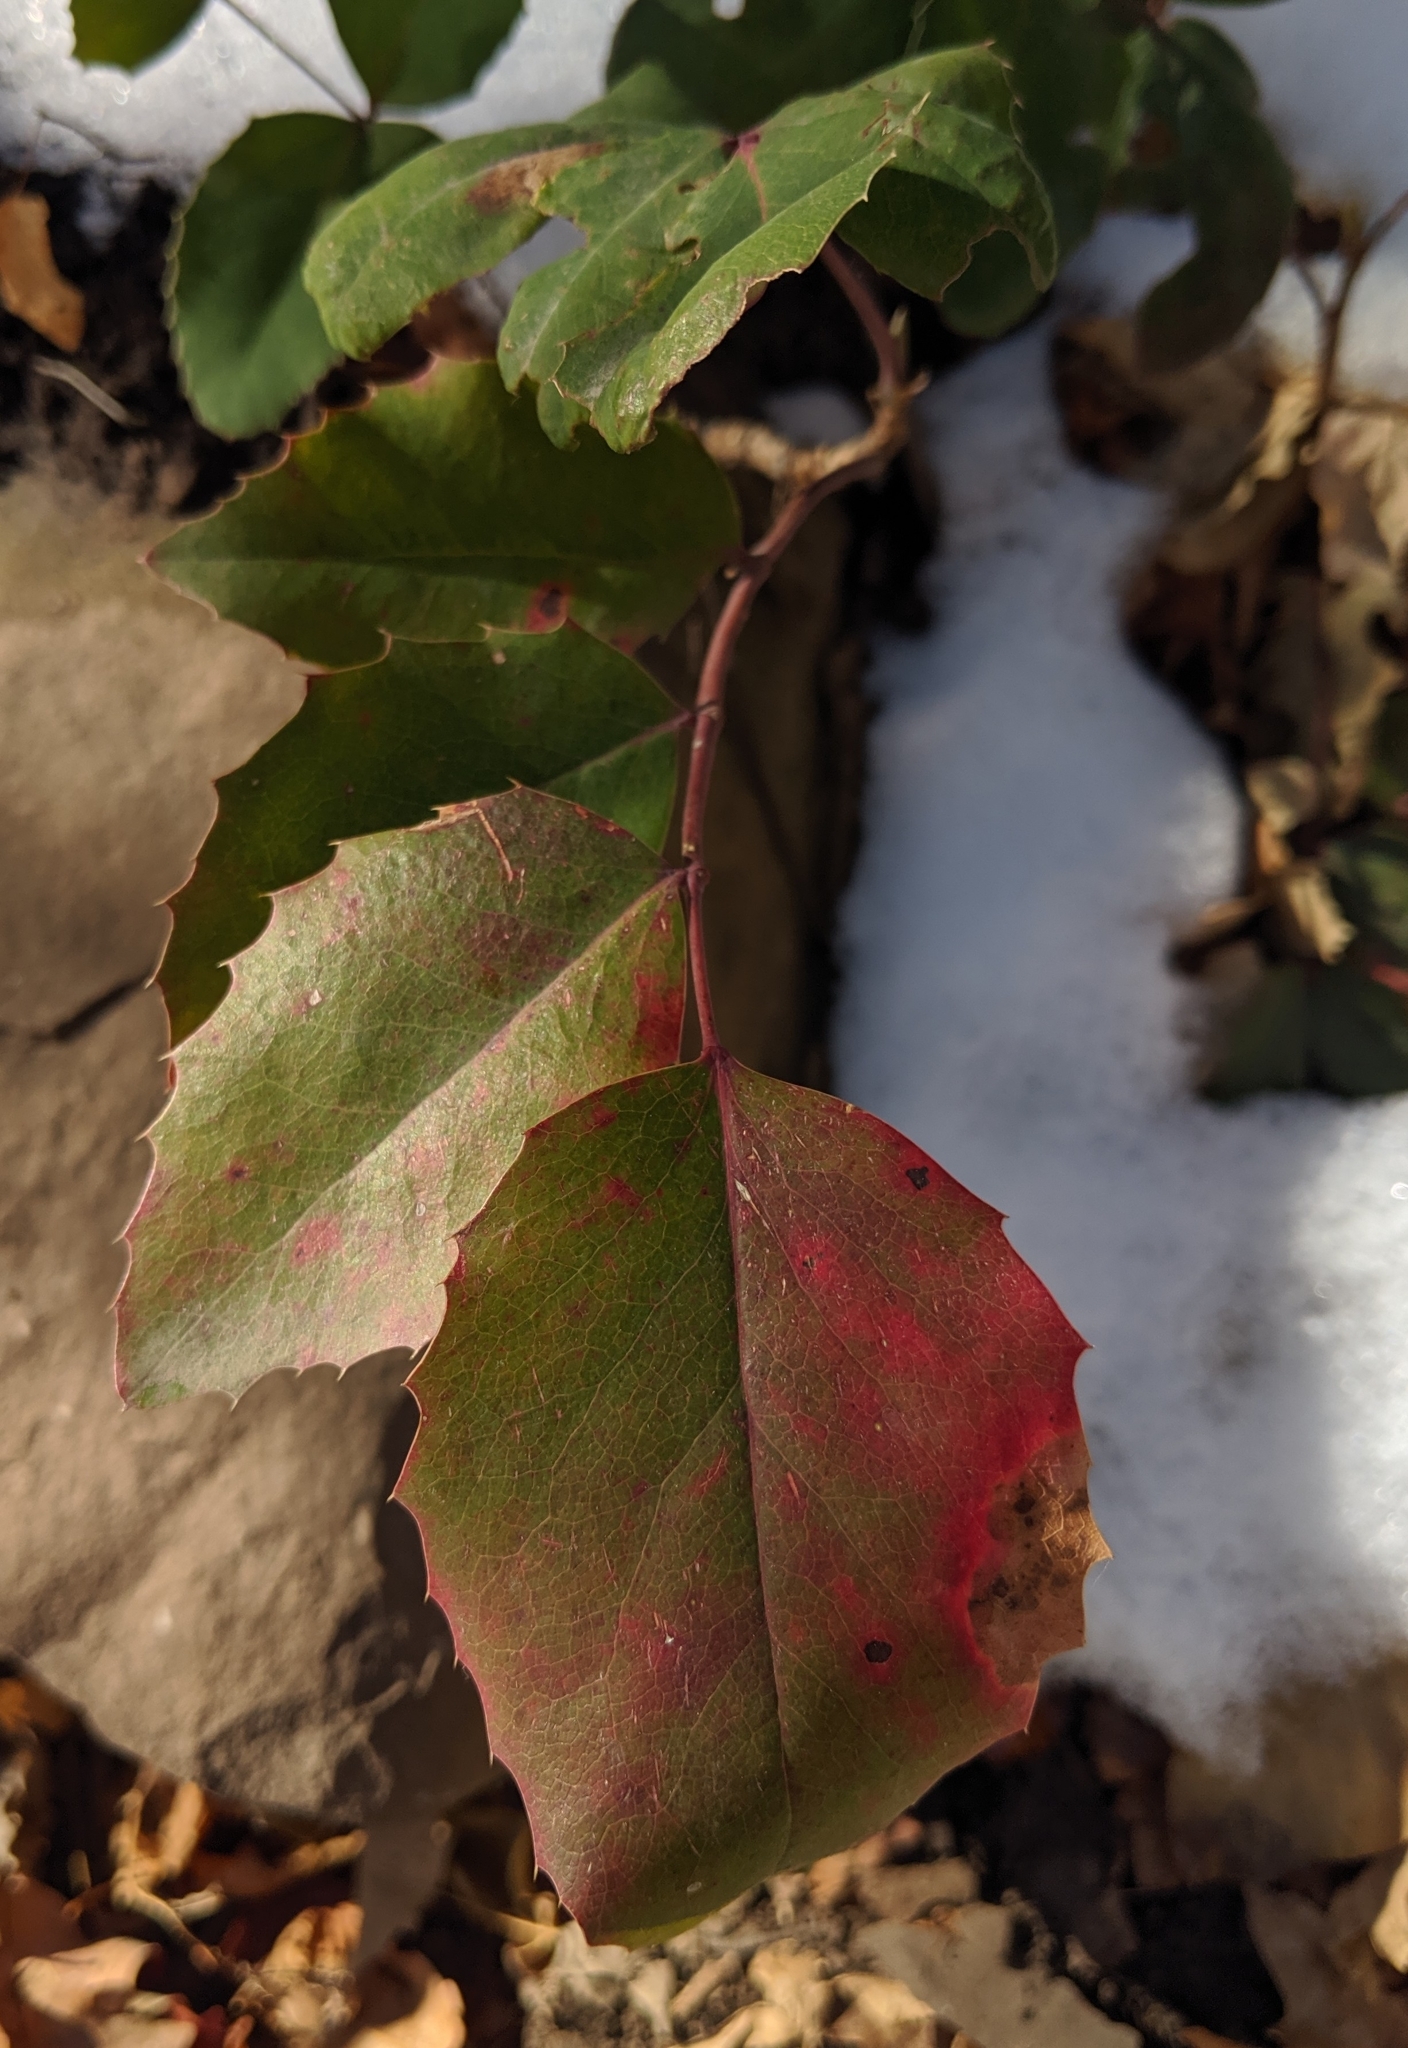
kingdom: Plantae
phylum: Tracheophyta
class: Magnoliopsida
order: Ranunculales
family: Berberidaceae
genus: Mahonia
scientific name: Mahonia repens
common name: Creeping oregon-grape
